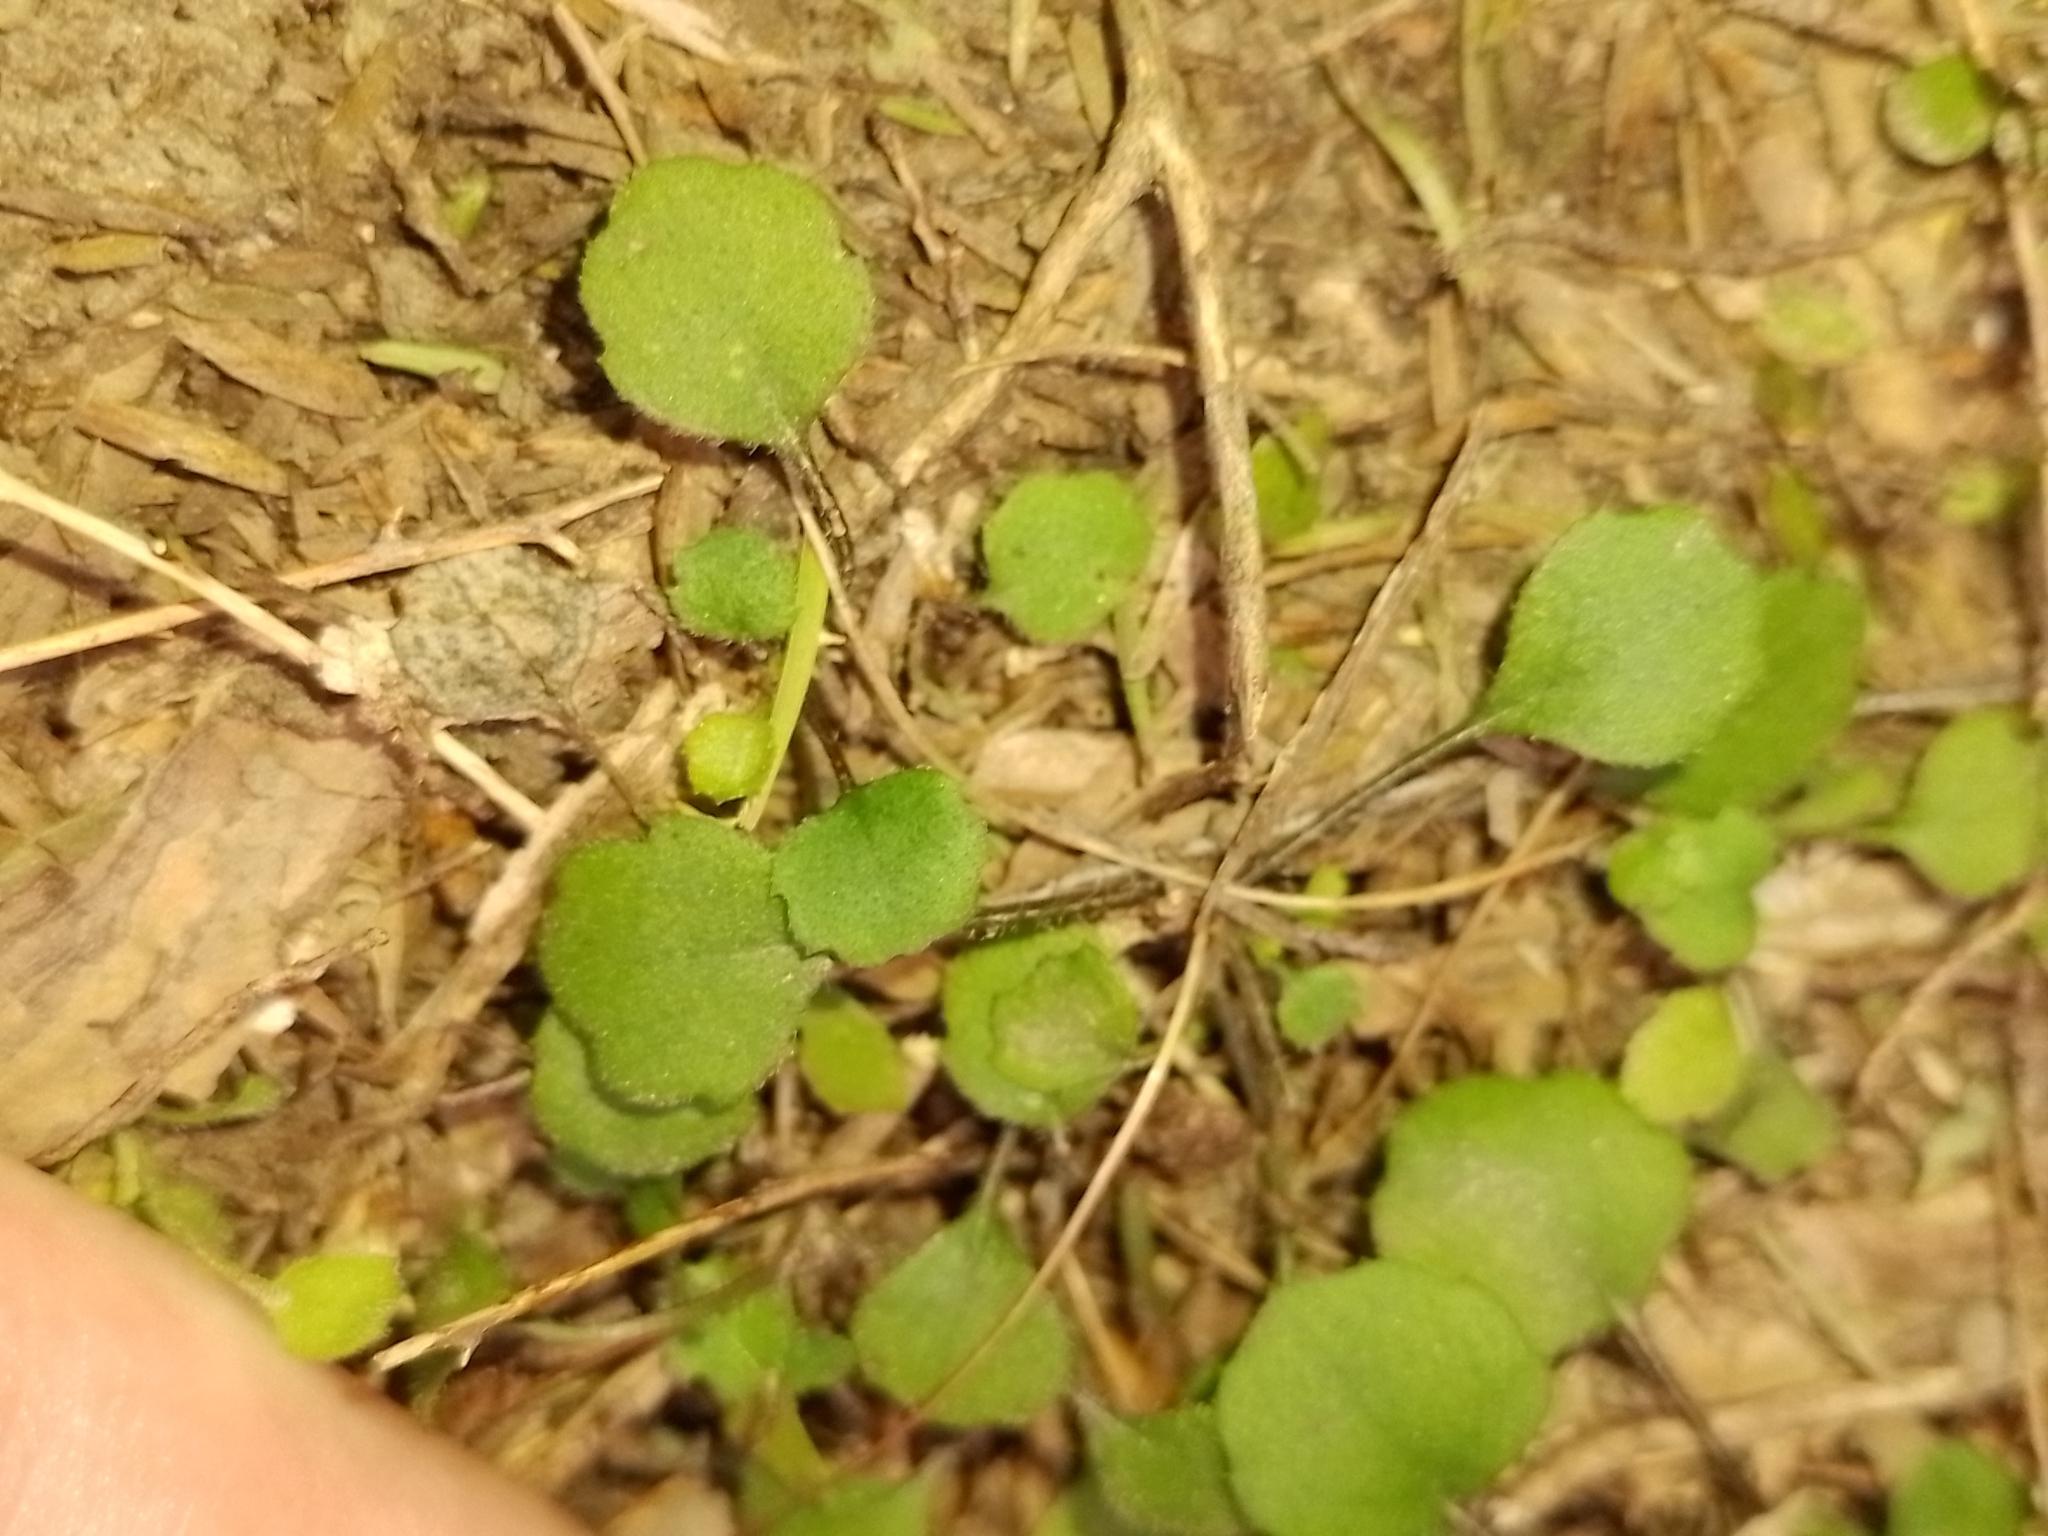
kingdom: Plantae
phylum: Tracheophyta
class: Magnoliopsida
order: Asterales
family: Asteraceae
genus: Lagenophora
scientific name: Lagenophora strangulata
